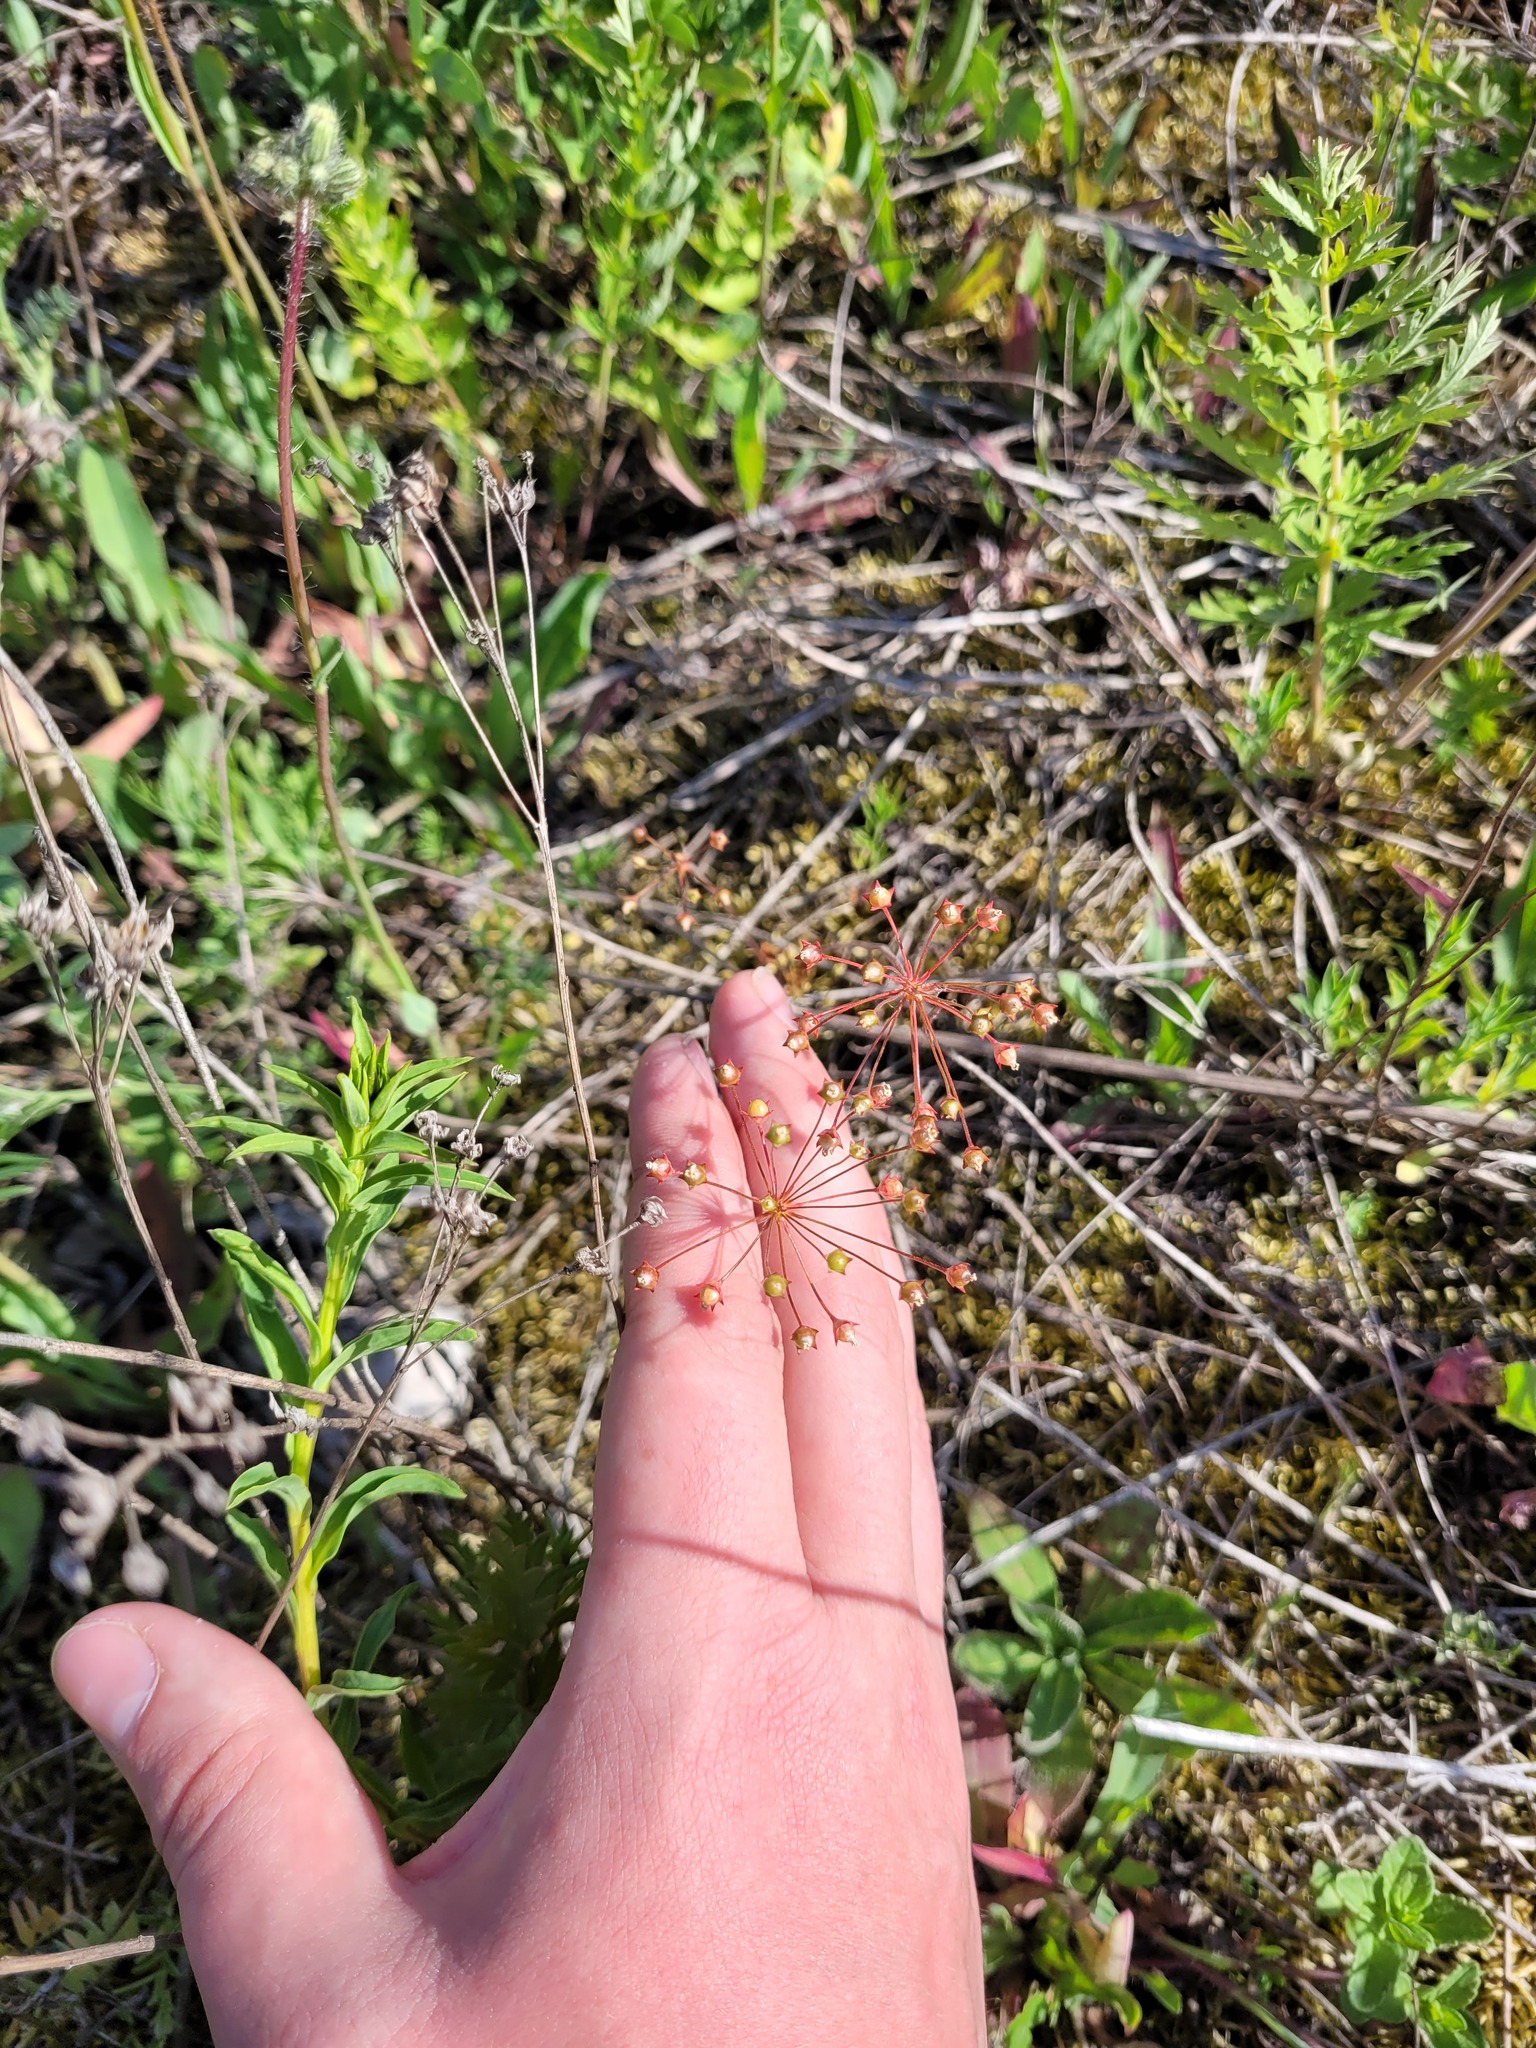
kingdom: Plantae
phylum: Tracheophyta
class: Magnoliopsida
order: Ericales
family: Primulaceae
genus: Androsace
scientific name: Androsace septentrionalis
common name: Hairy northern fairy-candelabra
